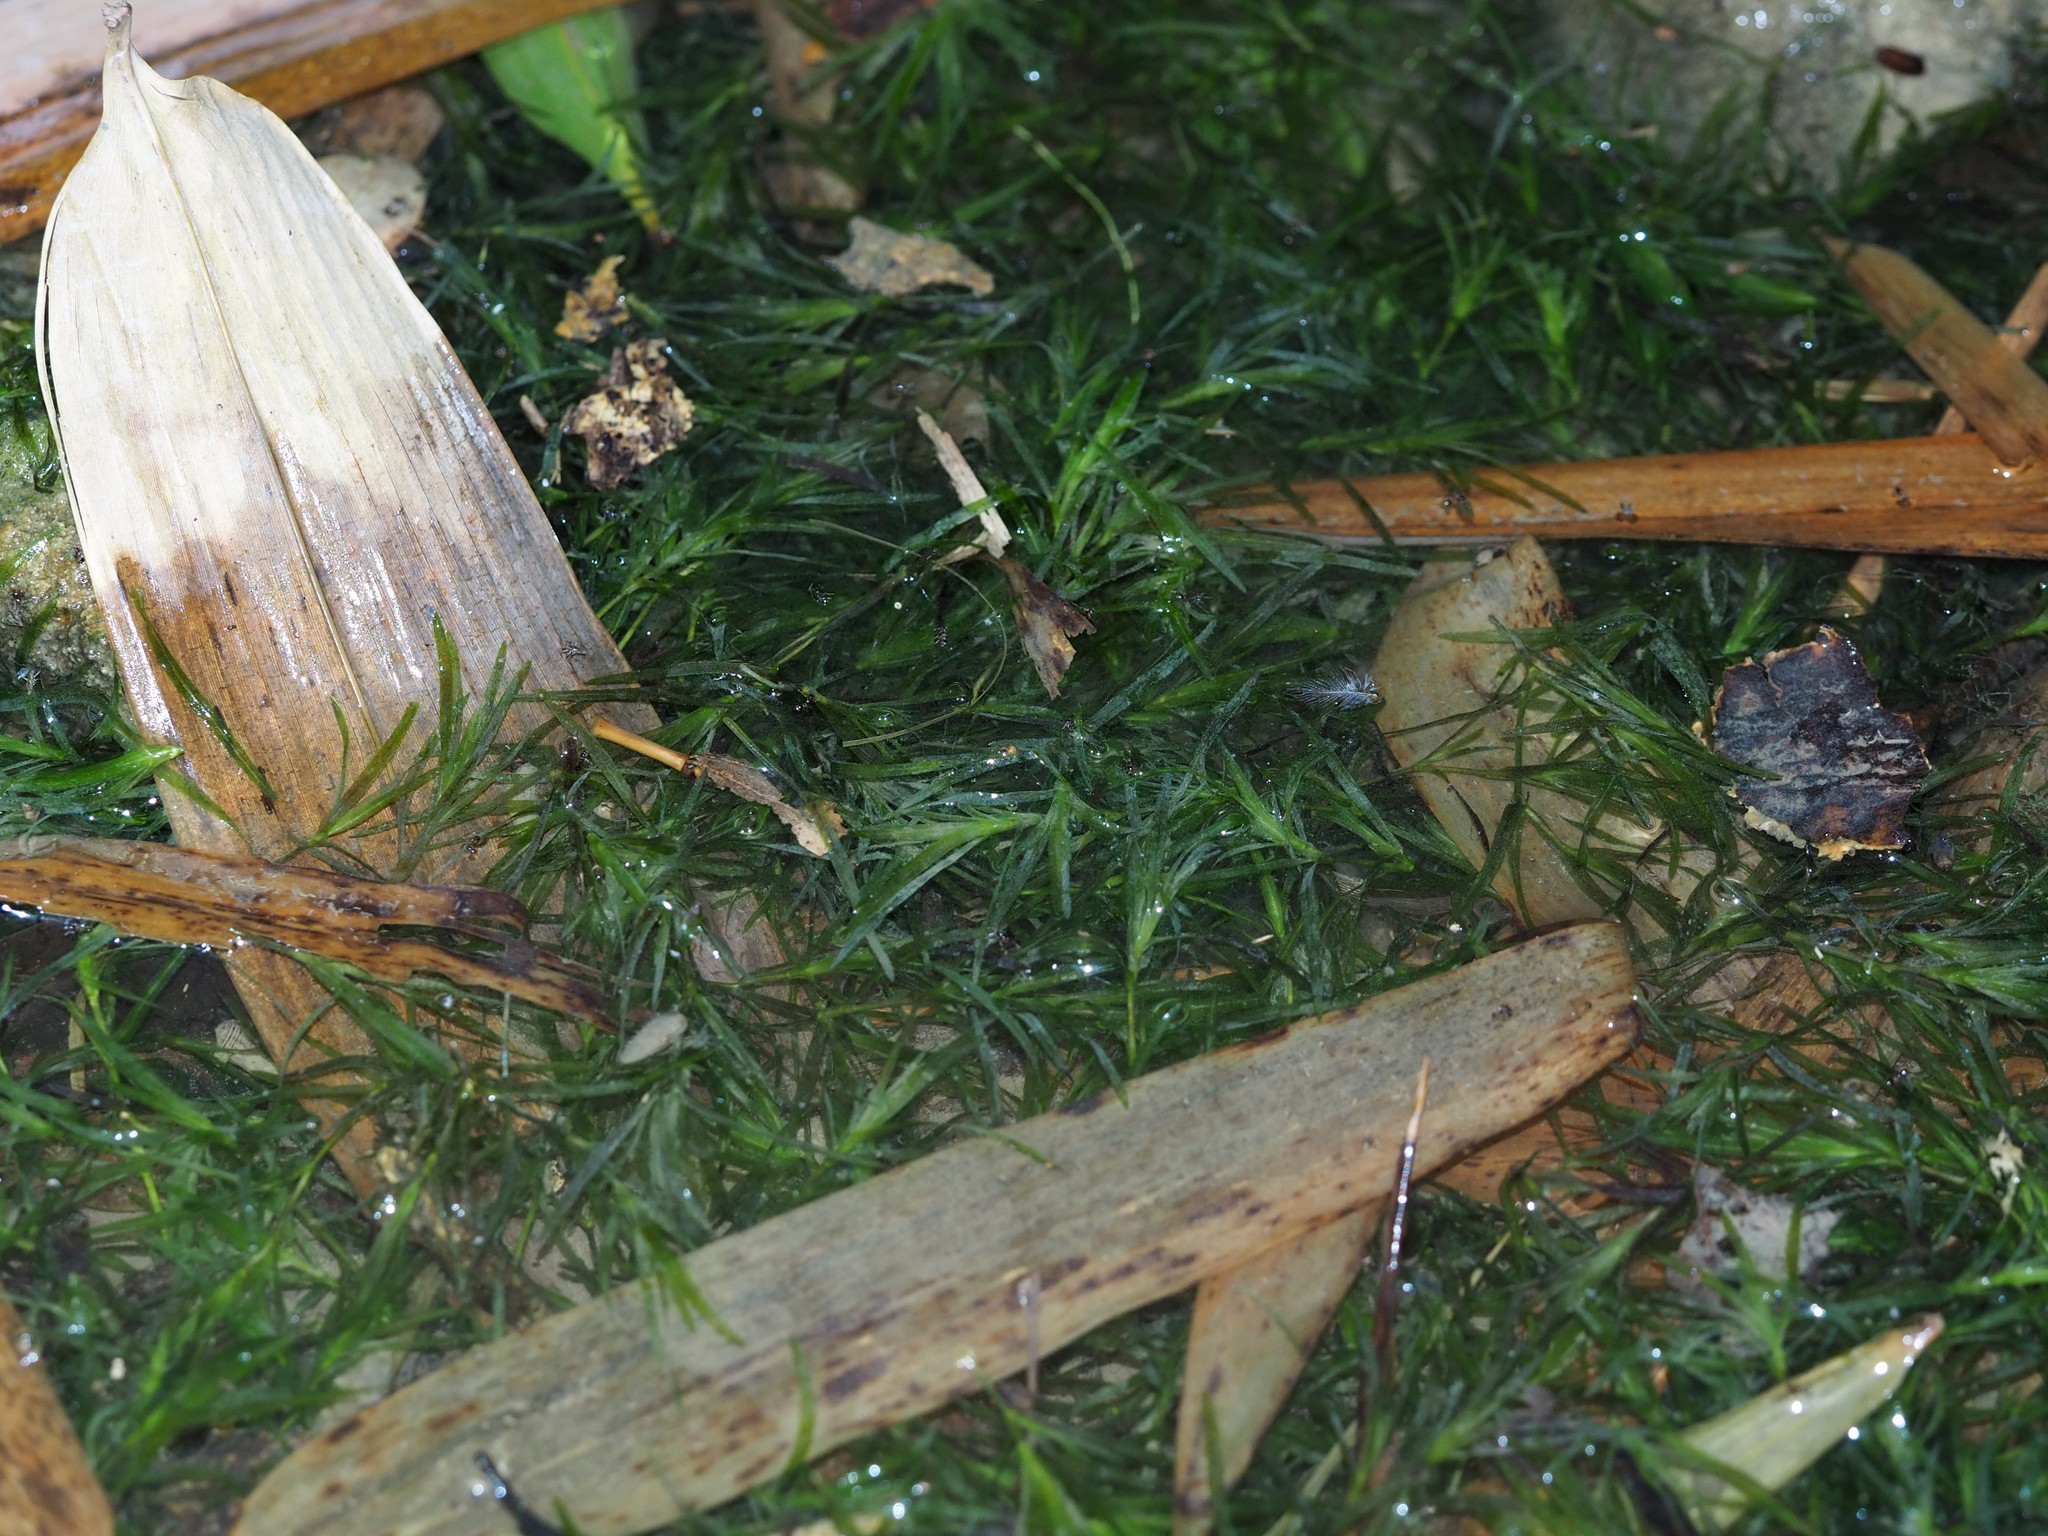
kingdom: Plantae
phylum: Tracheophyta
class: Liliopsida
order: Alismatales
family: Hydrocharitaceae
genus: Najas
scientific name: Najas guadalupensis
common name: Southern naiad
